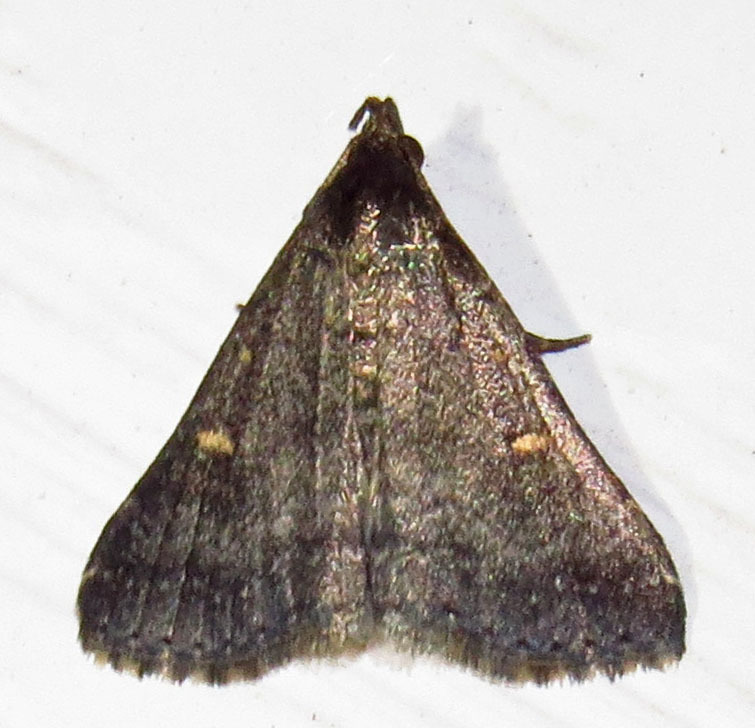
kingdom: Animalia
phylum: Arthropoda
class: Insecta
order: Lepidoptera
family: Erebidae
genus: Tetanolita
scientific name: Tetanolita mynesalis
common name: Smoky tetanolita moth
